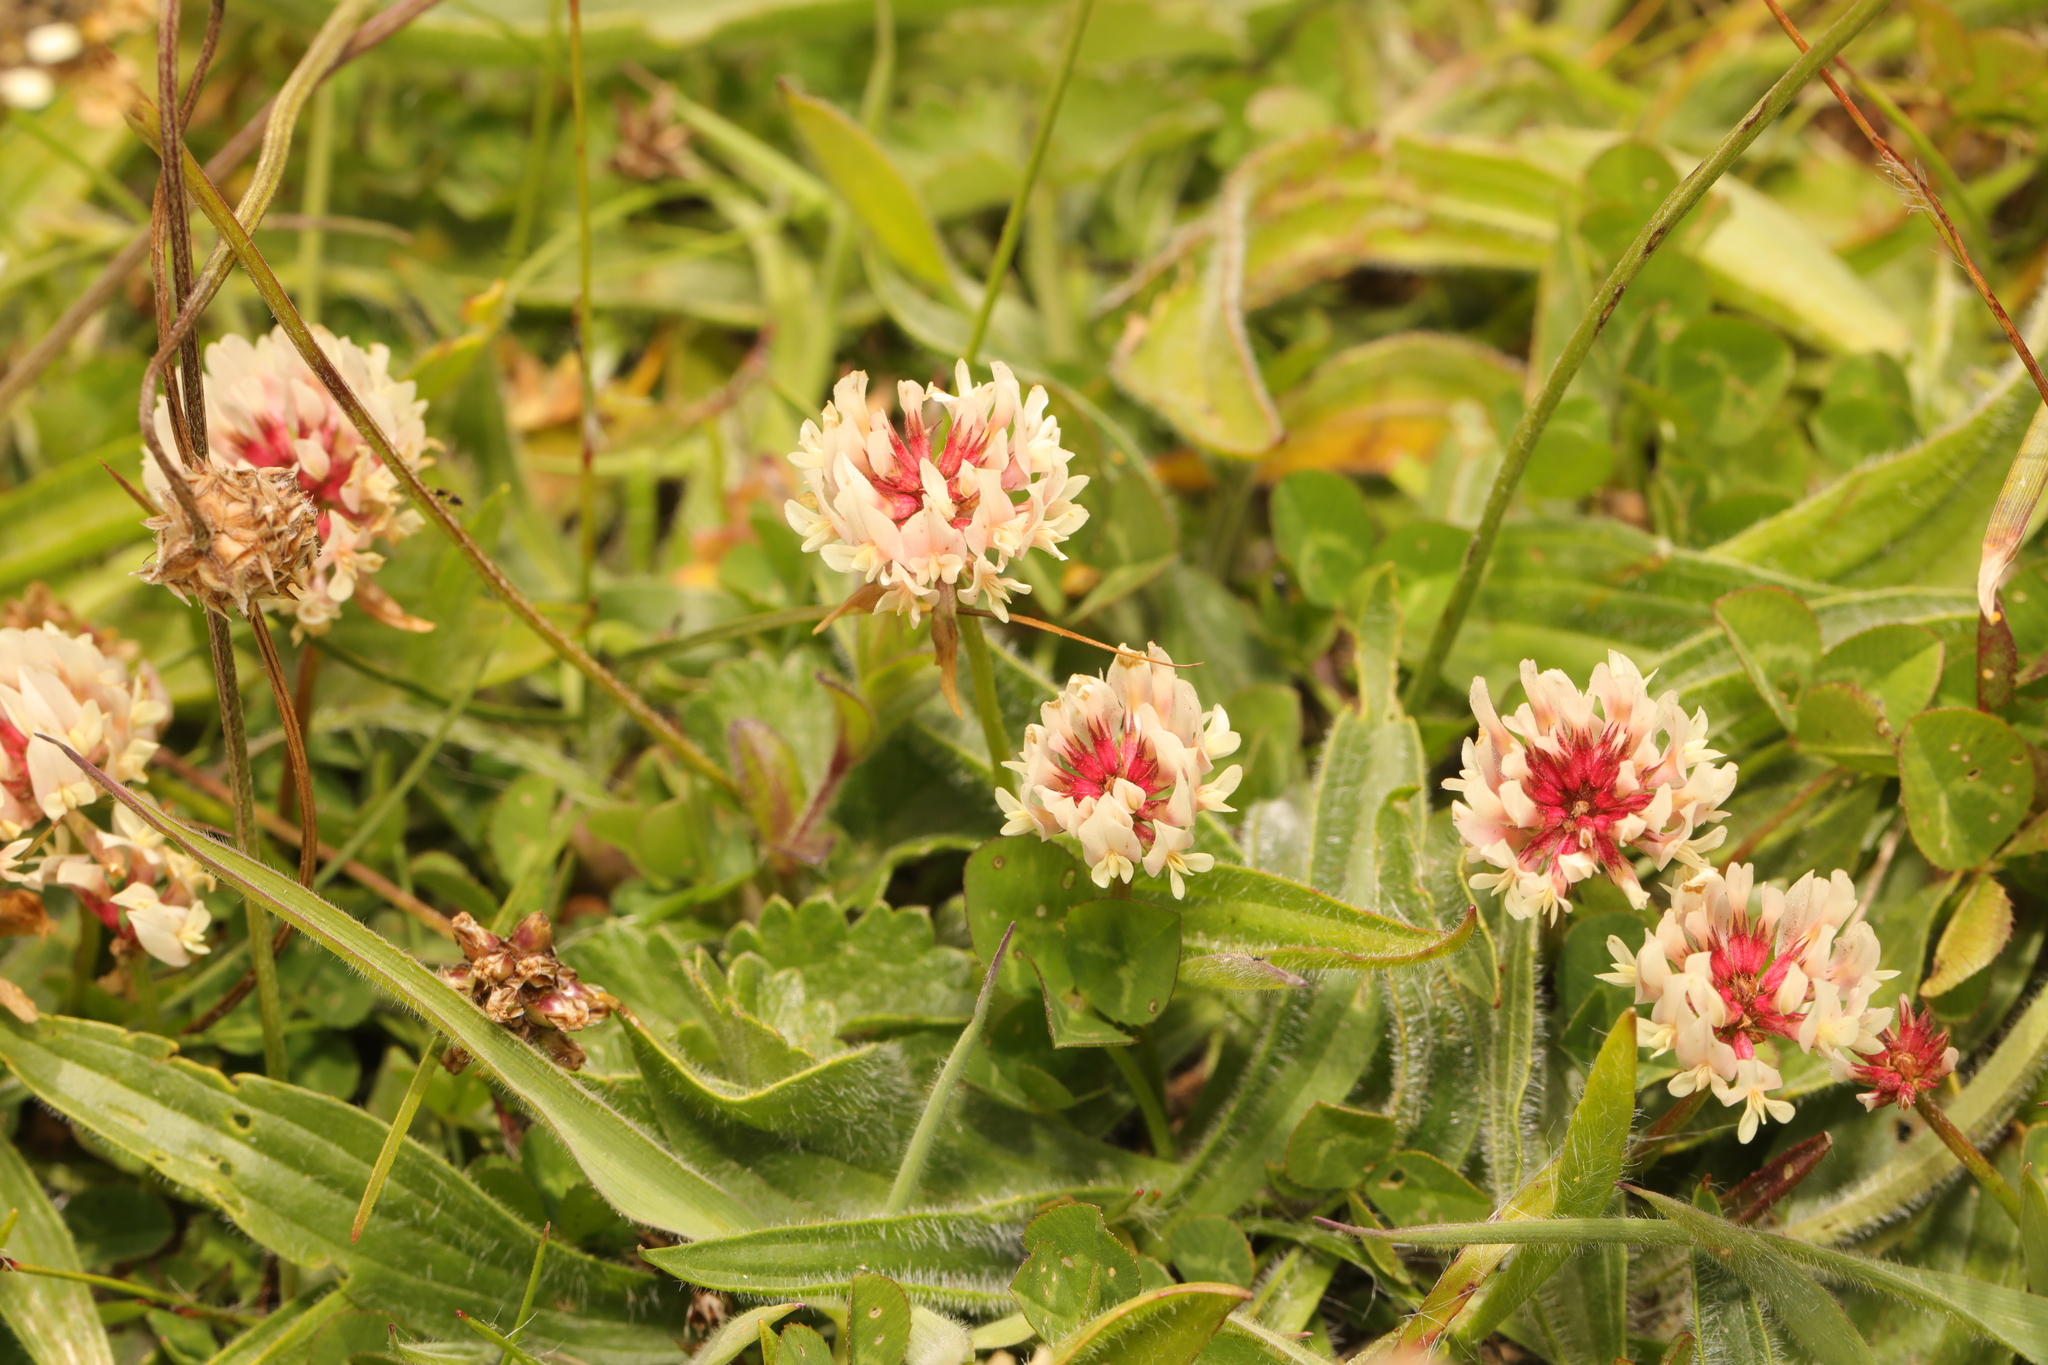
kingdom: Plantae
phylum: Tracheophyta
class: Magnoliopsida
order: Fabales
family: Fabaceae
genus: Trifolium
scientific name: Trifolium repens
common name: White clover
